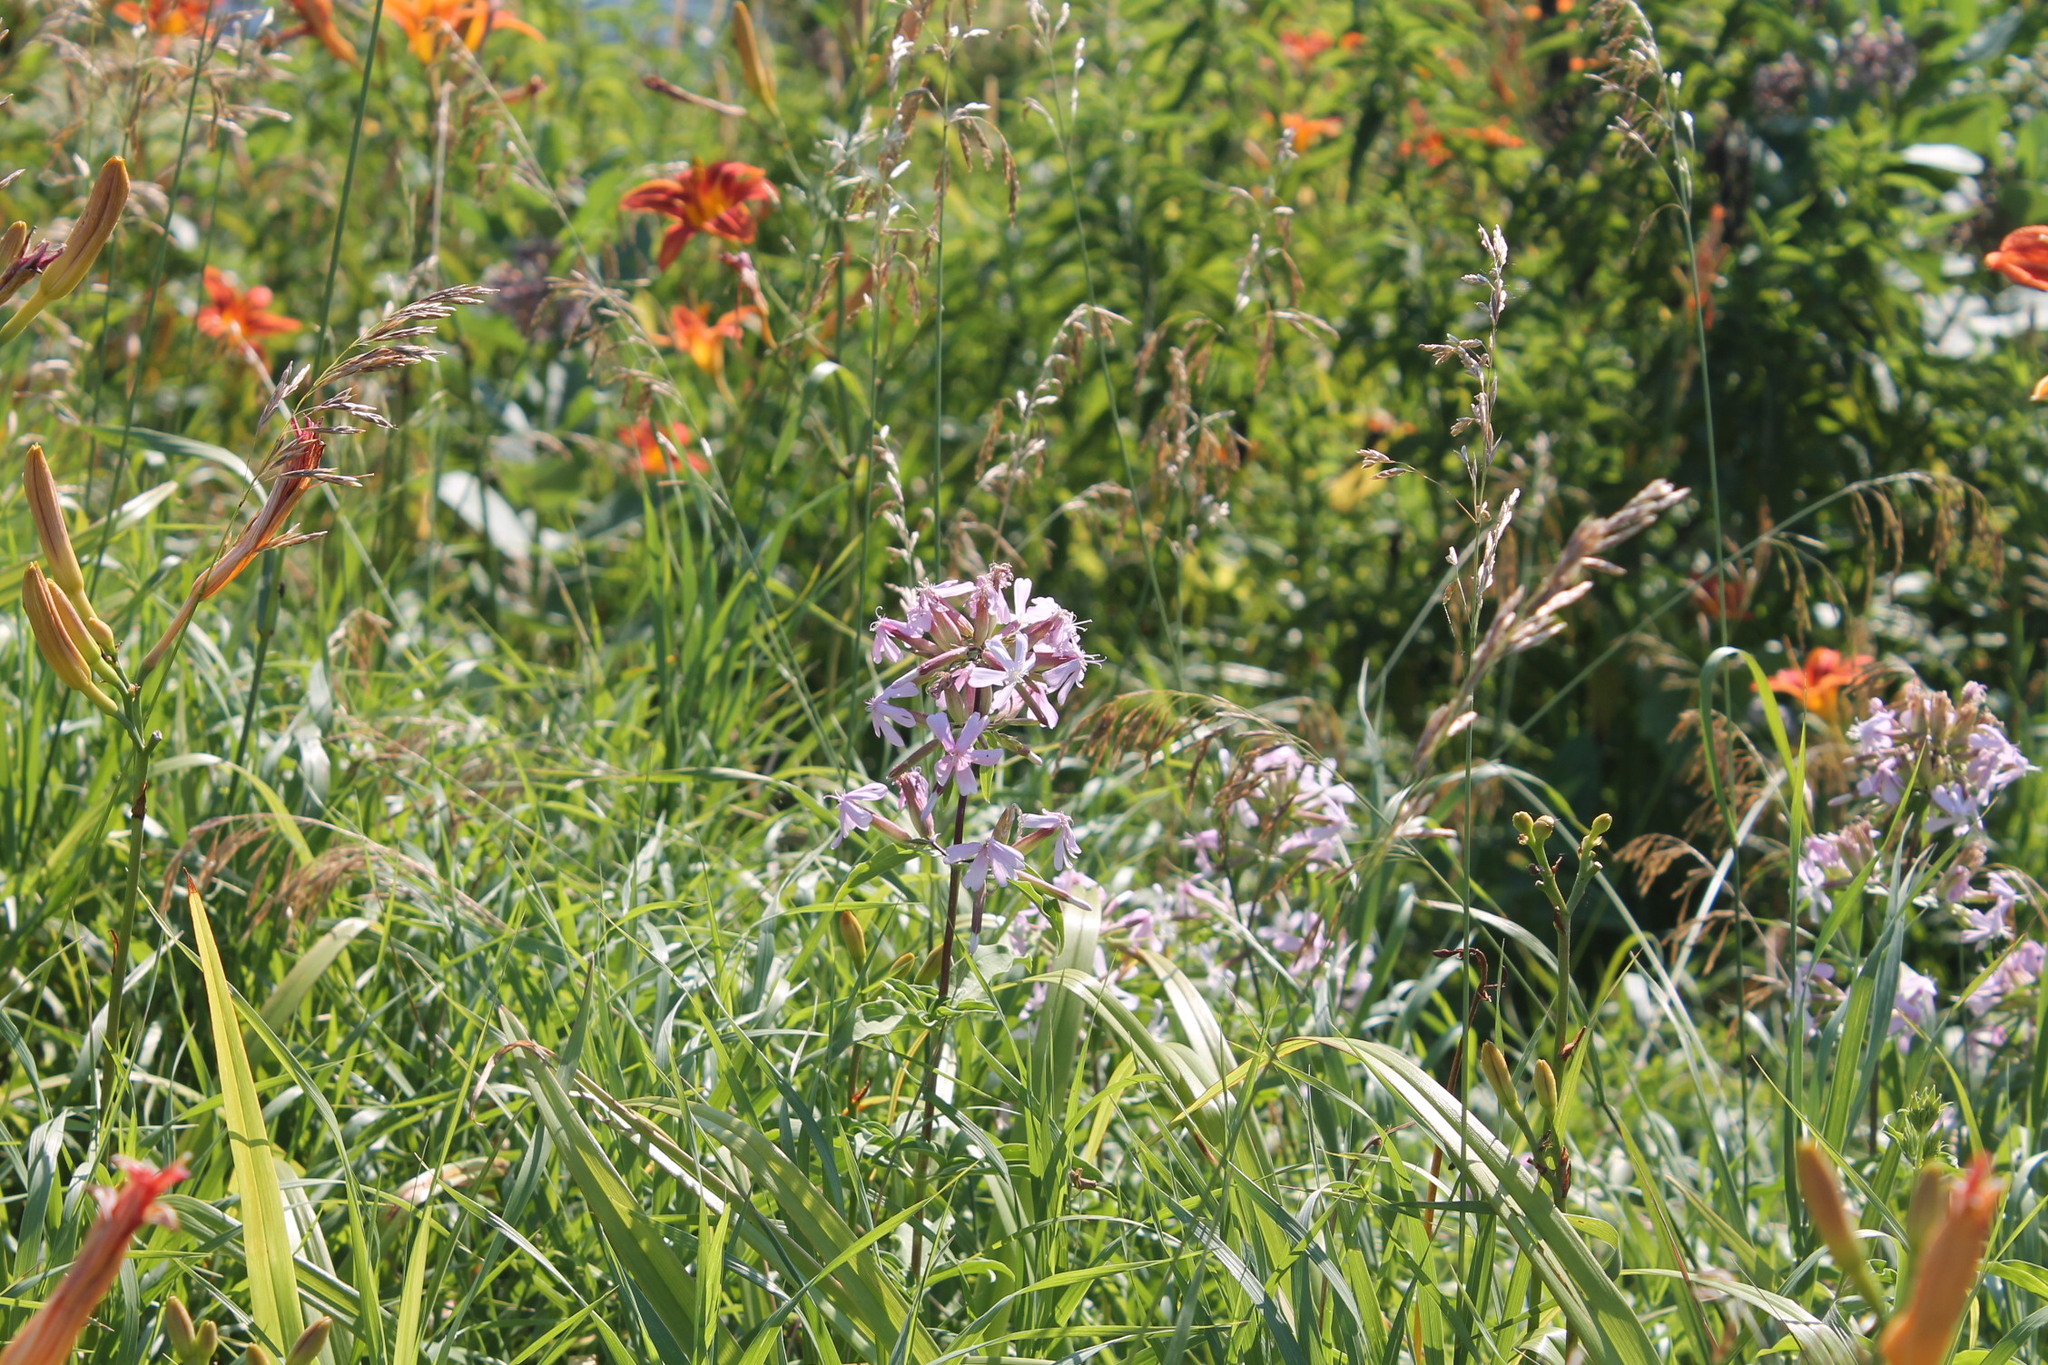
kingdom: Plantae
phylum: Tracheophyta
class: Magnoliopsida
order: Caryophyllales
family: Caryophyllaceae
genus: Saponaria
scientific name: Saponaria officinalis
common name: Soapwort
